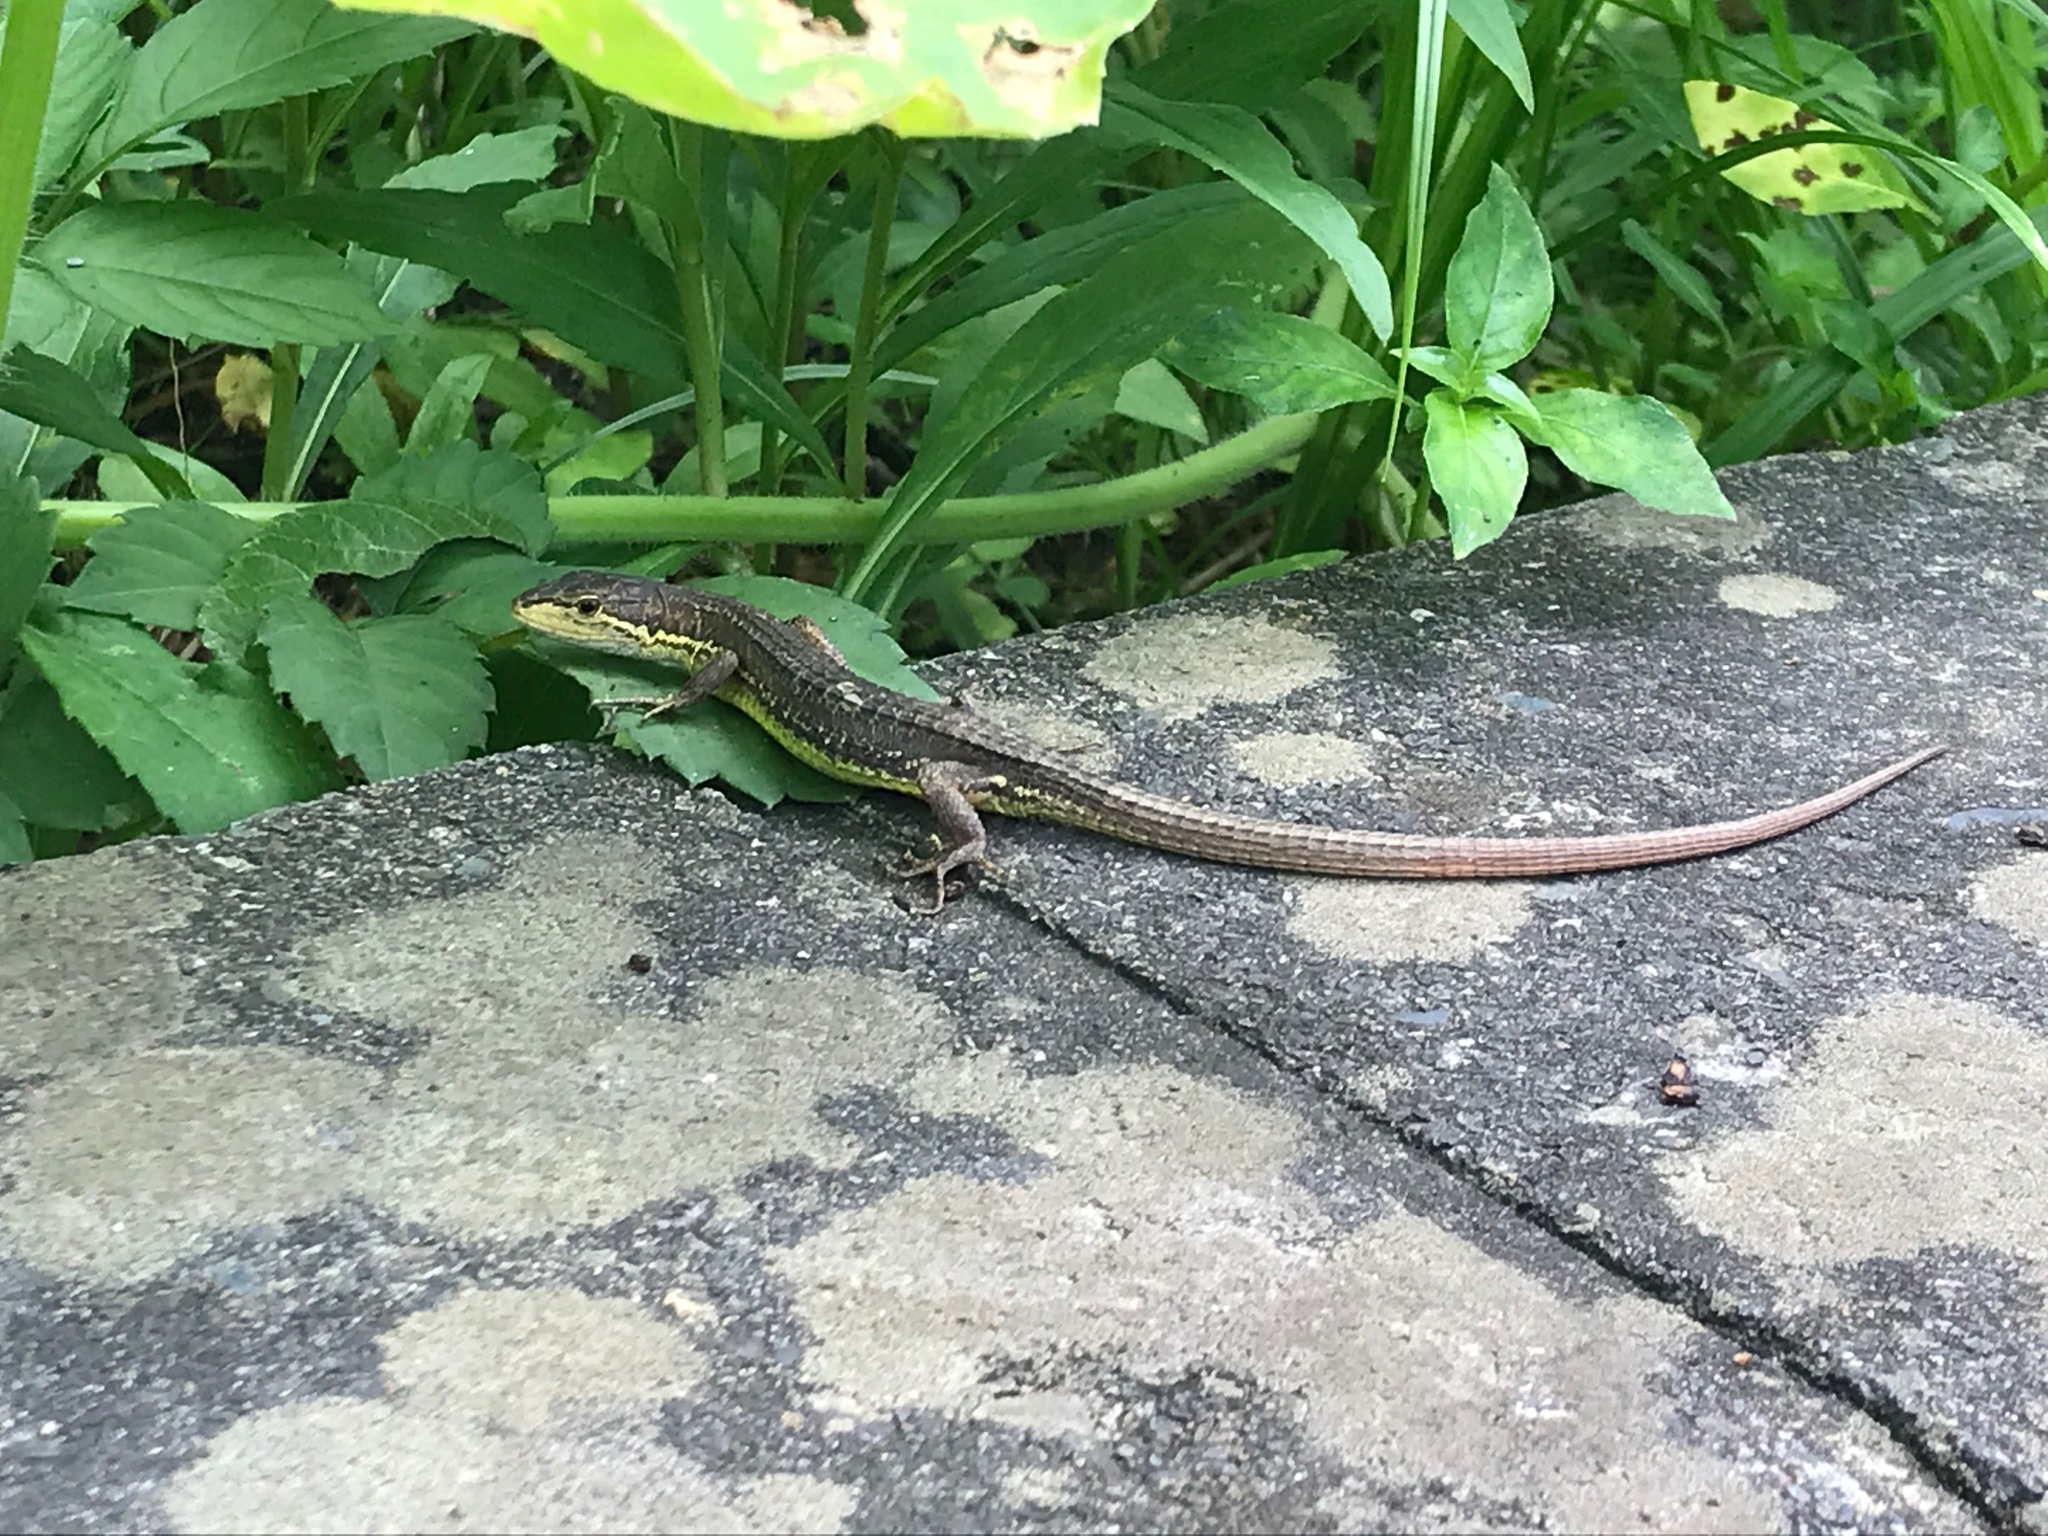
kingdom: Animalia
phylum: Chordata
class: Squamata
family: Lacertidae
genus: Takydromus
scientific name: Takydromus tachydromoides
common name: Japanese grass lizard
